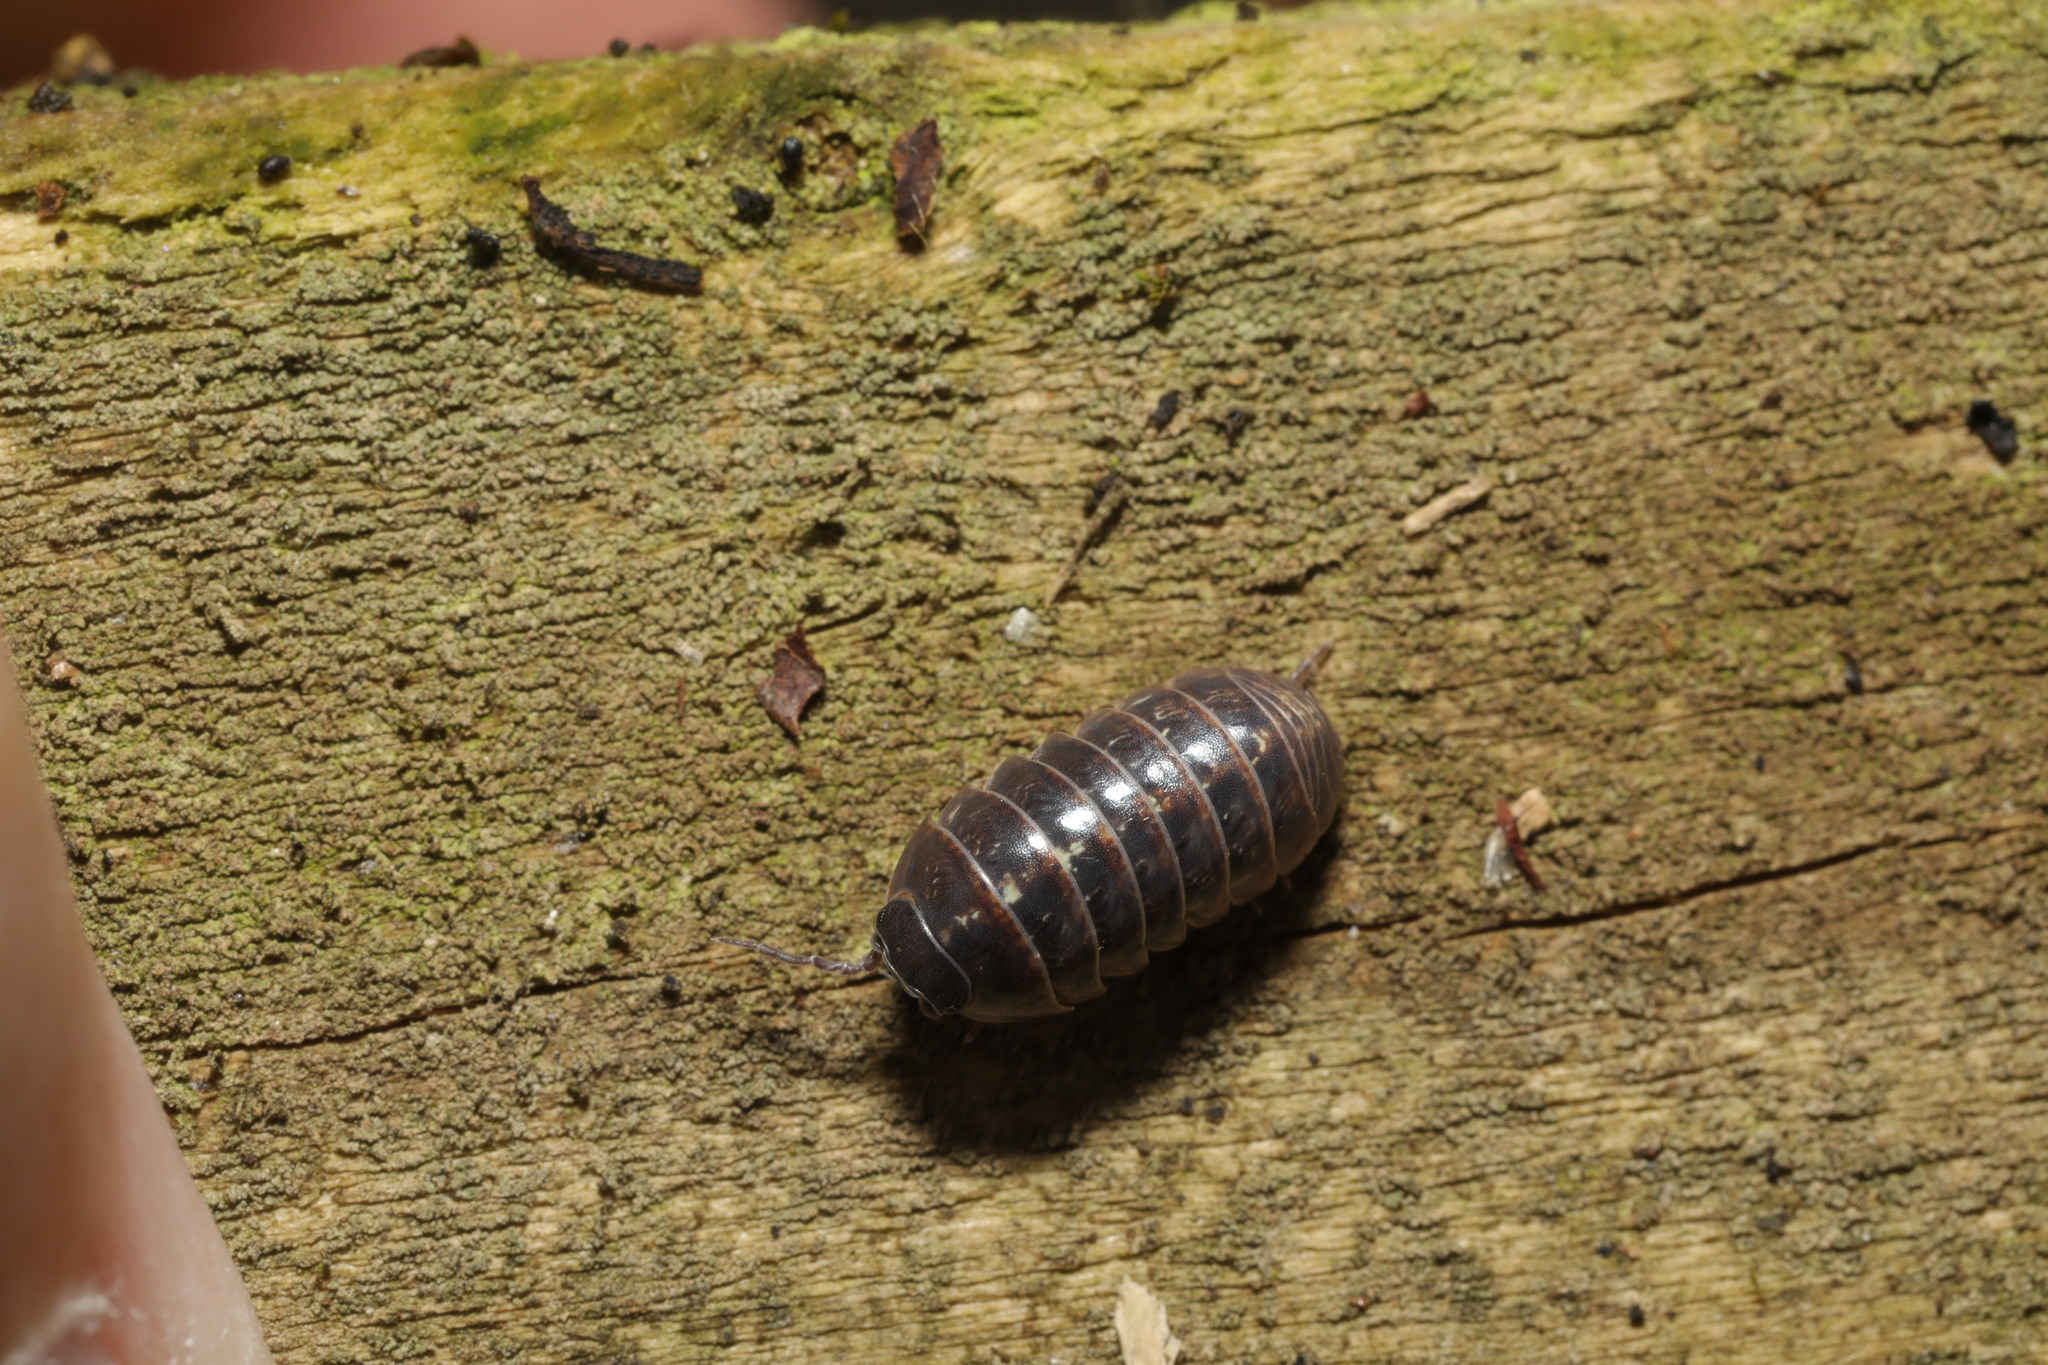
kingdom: Animalia
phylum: Arthropoda
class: Malacostraca
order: Isopoda
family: Armadillidiidae
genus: Armadillidium
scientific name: Armadillidium vulgare
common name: Common pill woodlouse
